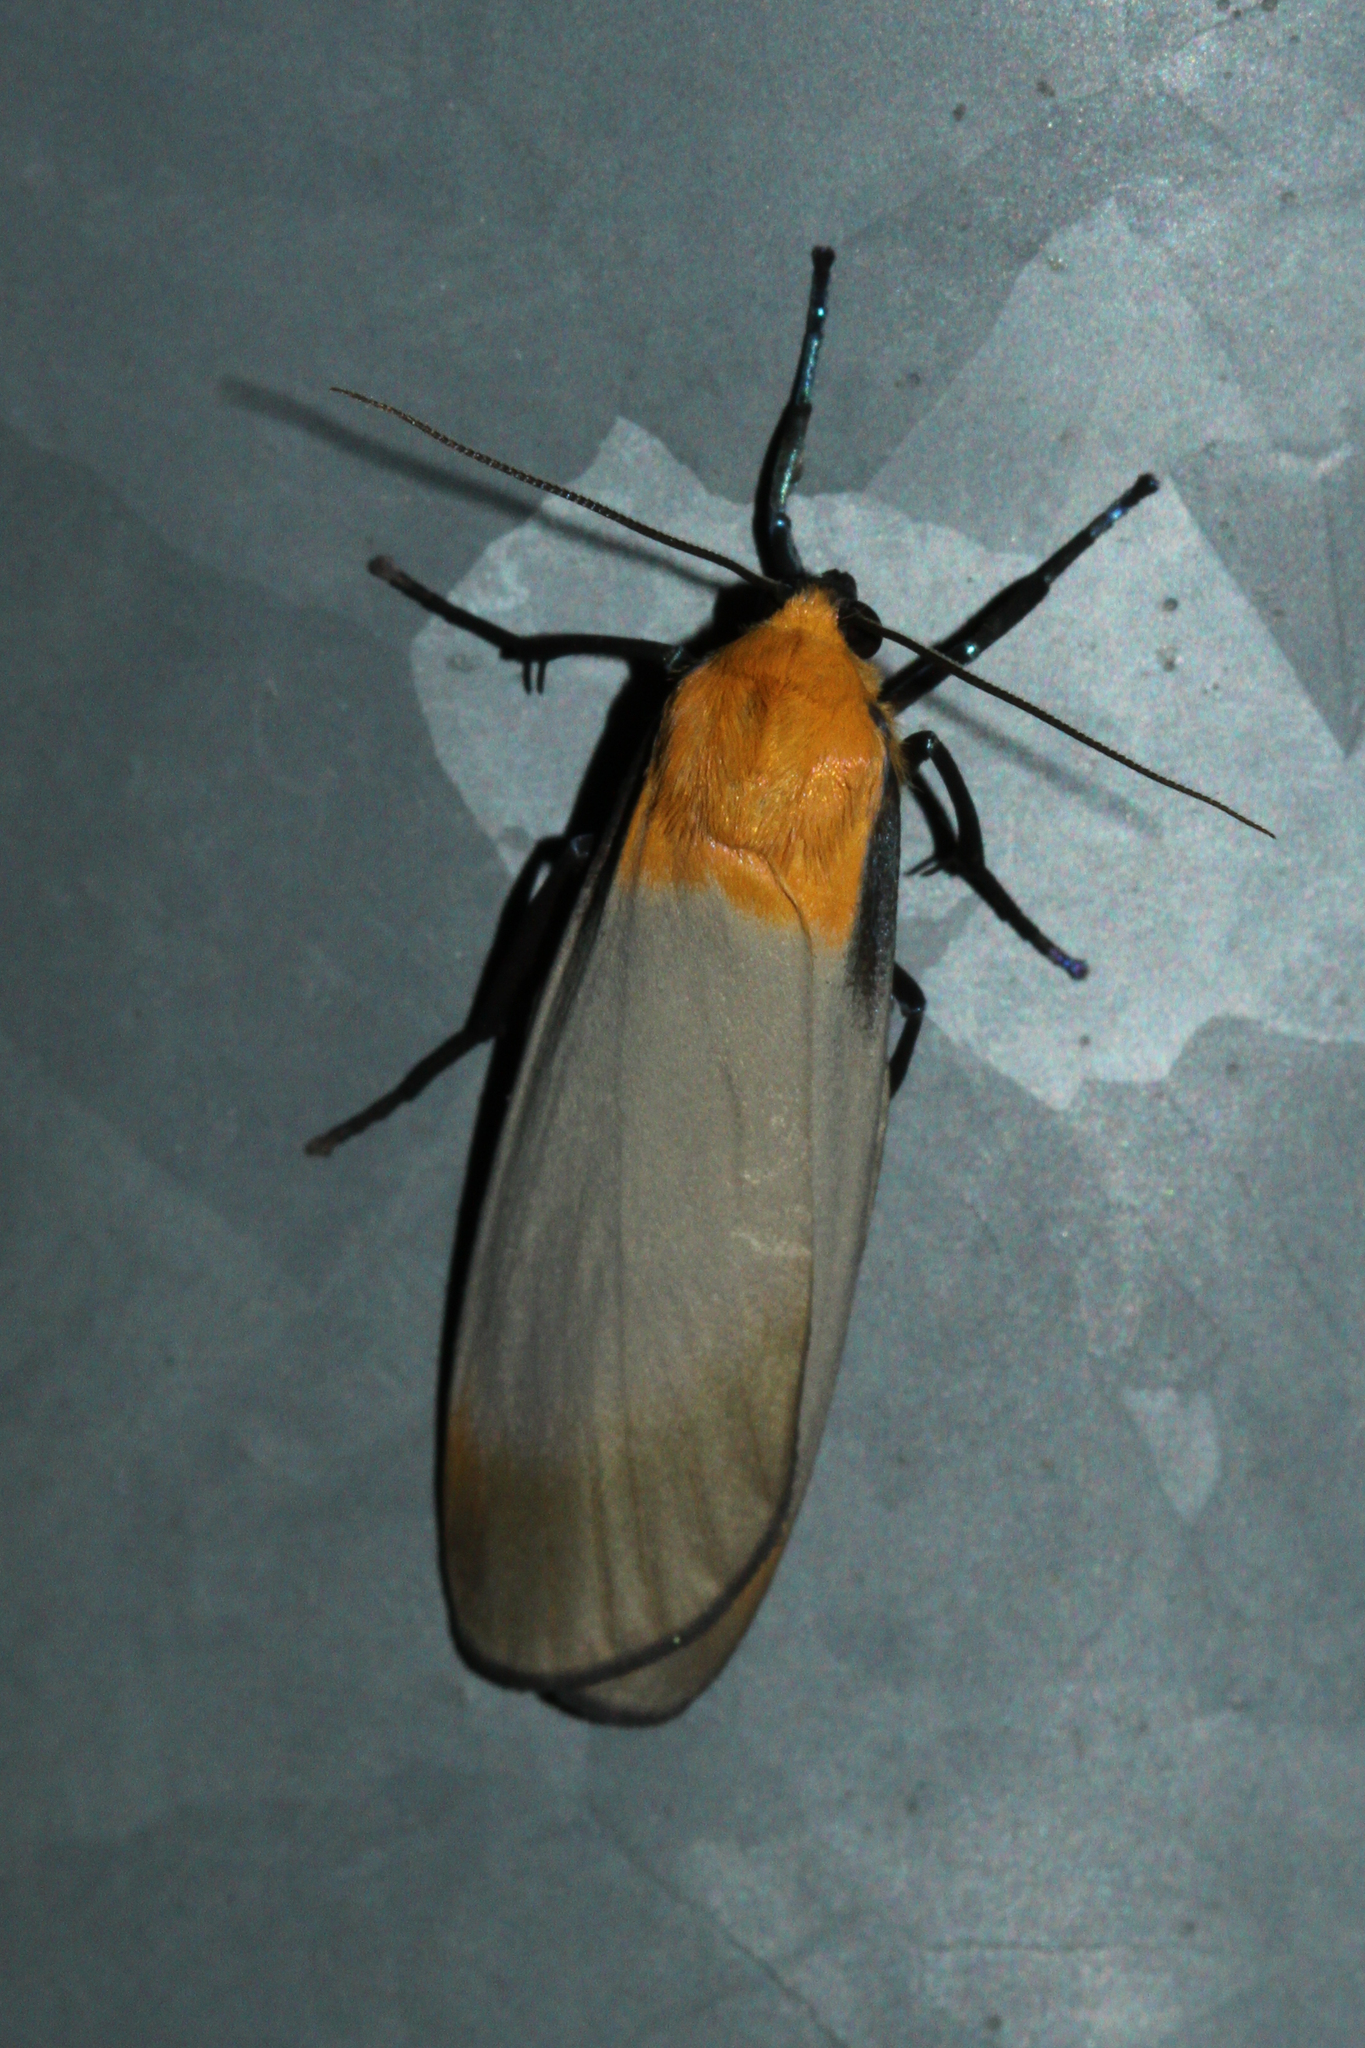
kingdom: Animalia
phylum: Arthropoda
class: Insecta
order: Lepidoptera
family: Erebidae
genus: Lithosia
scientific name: Lithosia quadra
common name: Four-spotted footman
